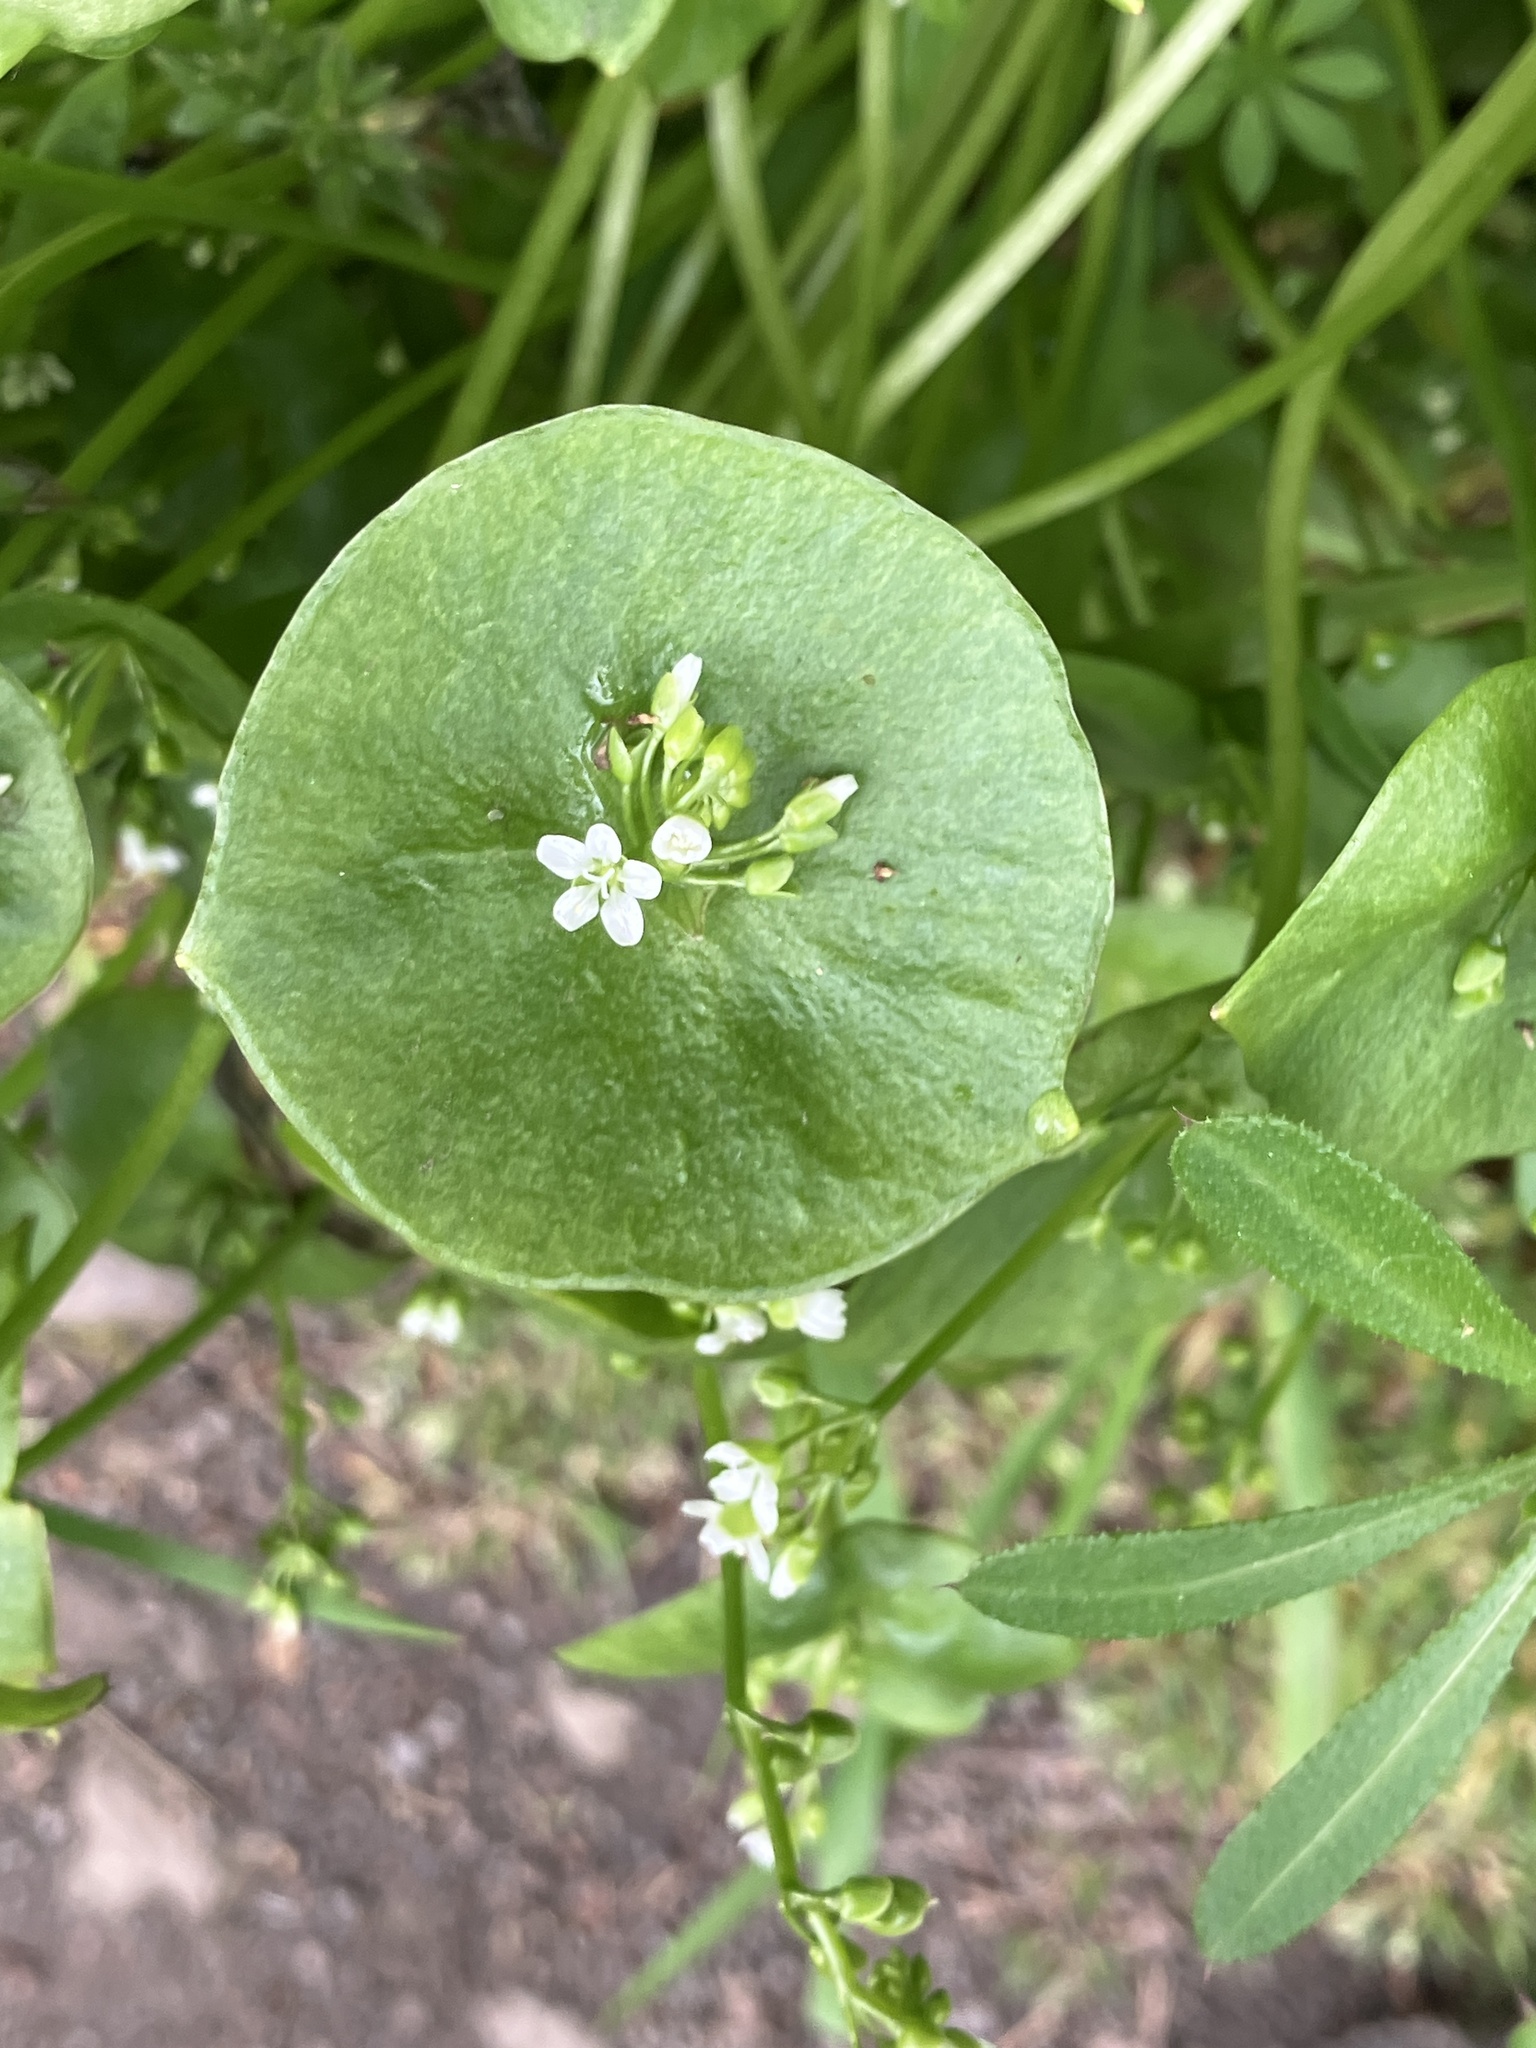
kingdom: Plantae
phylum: Tracheophyta
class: Magnoliopsida
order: Caryophyllales
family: Montiaceae
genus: Claytonia
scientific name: Claytonia perfoliata
